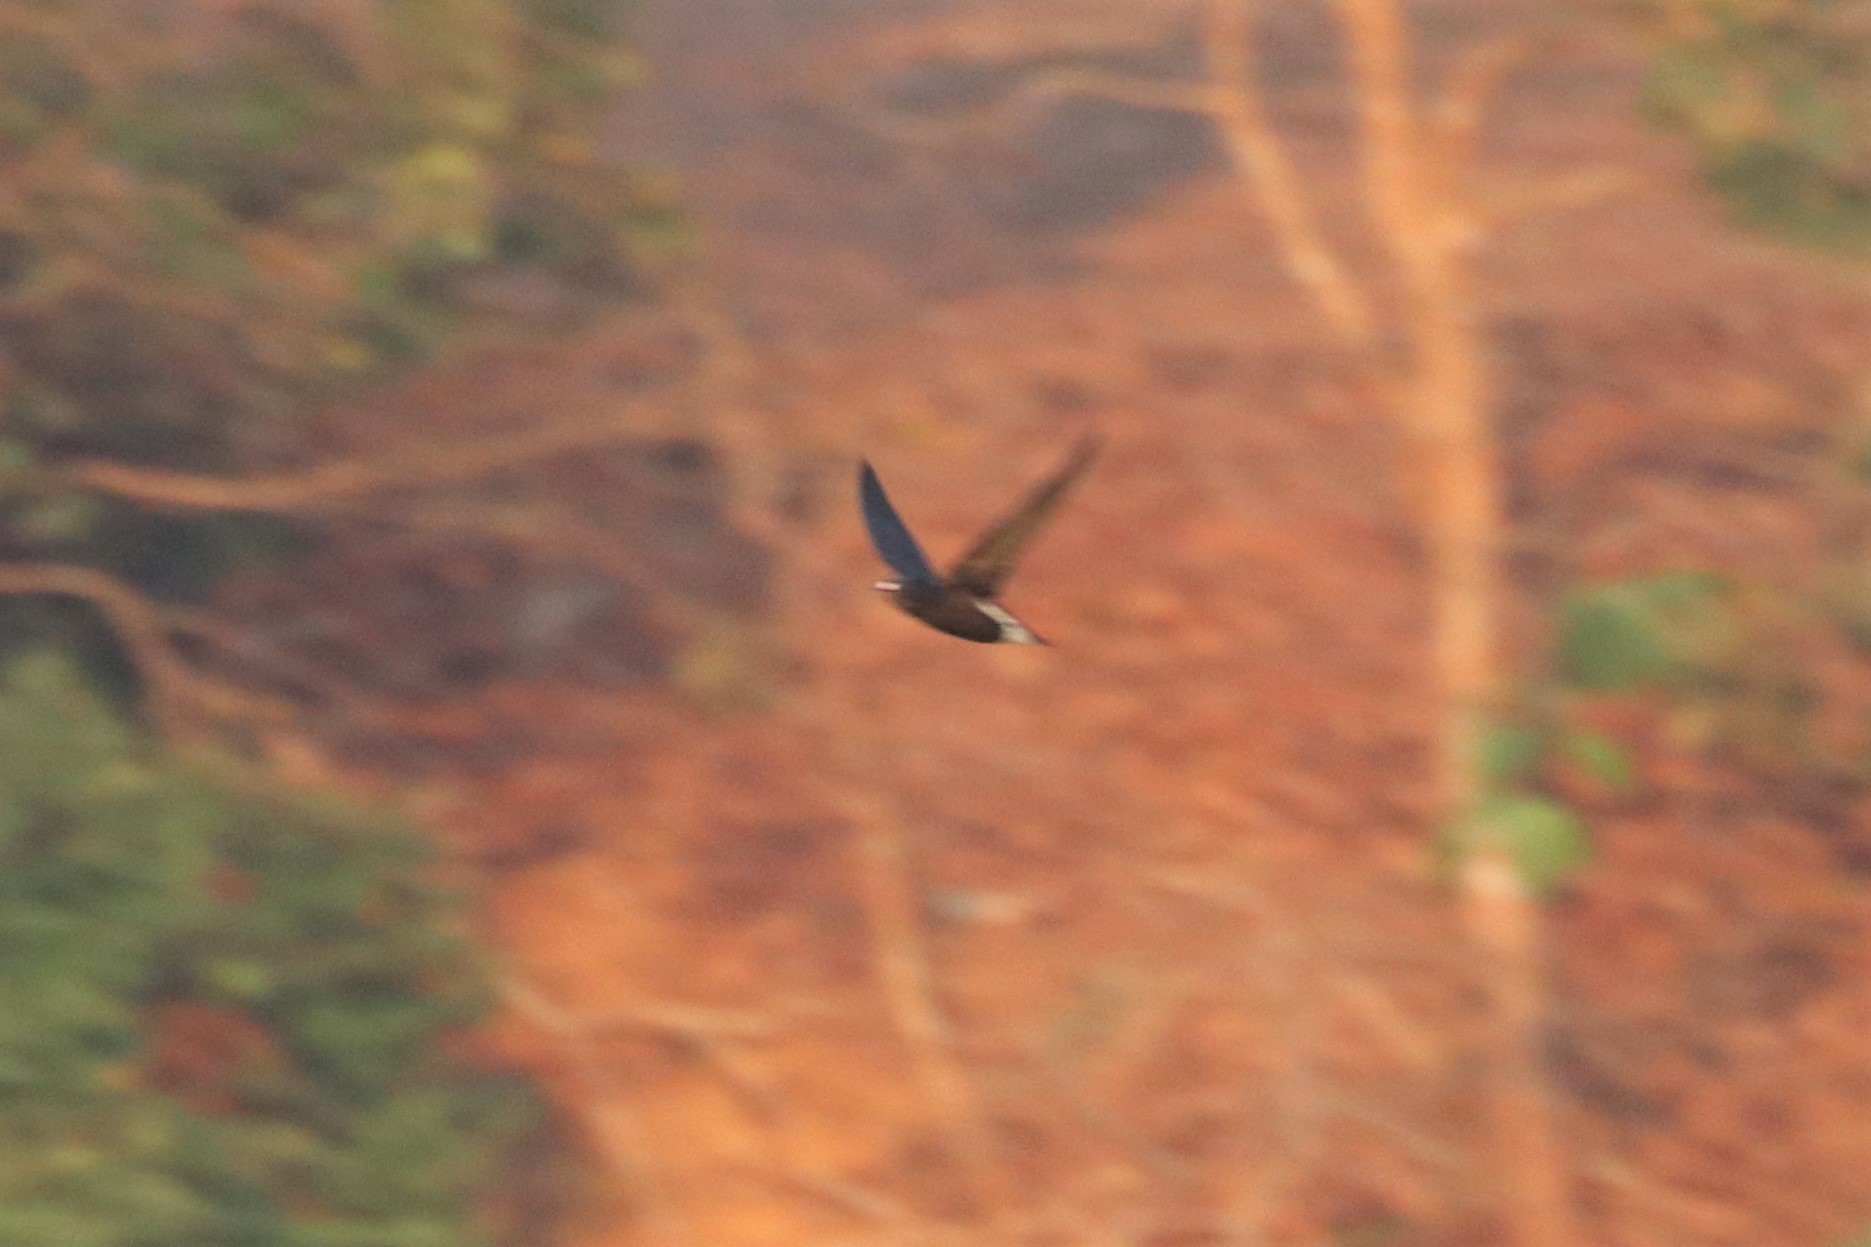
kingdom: Animalia
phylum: Chordata
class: Aves
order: Apodiformes
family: Apodidae
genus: Hirundapus
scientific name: Hirundapus giganteus
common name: Brown-backed needletail
